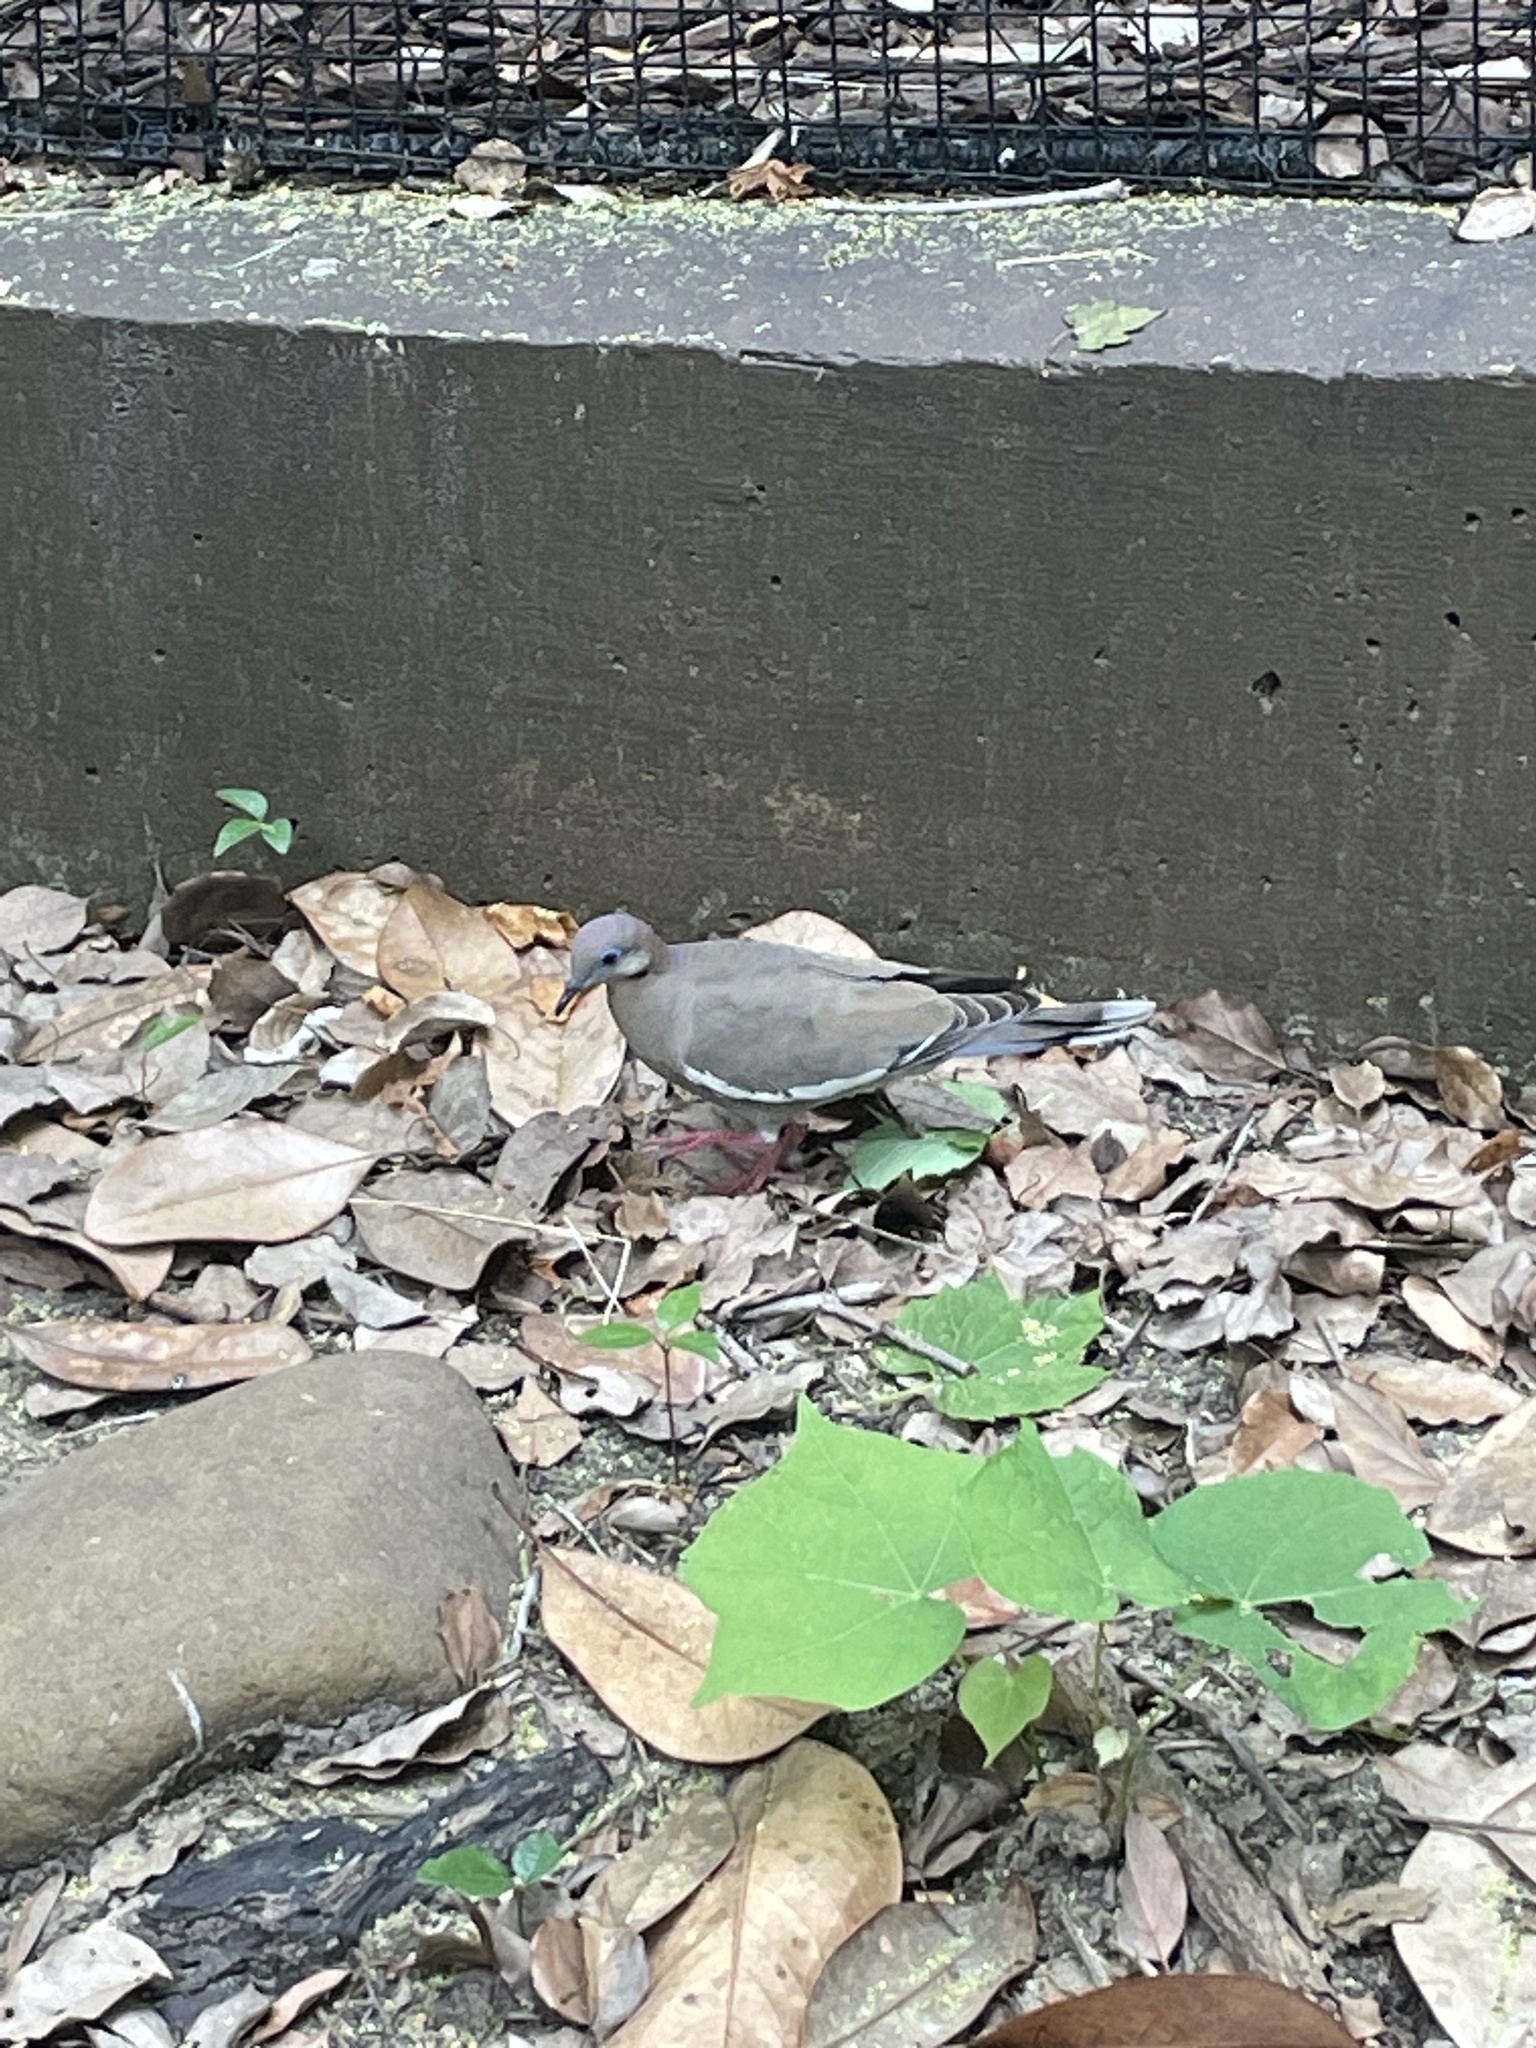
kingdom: Animalia
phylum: Chordata
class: Aves
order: Columbiformes
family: Columbidae
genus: Zenaida
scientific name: Zenaida asiatica
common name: White-winged dove
